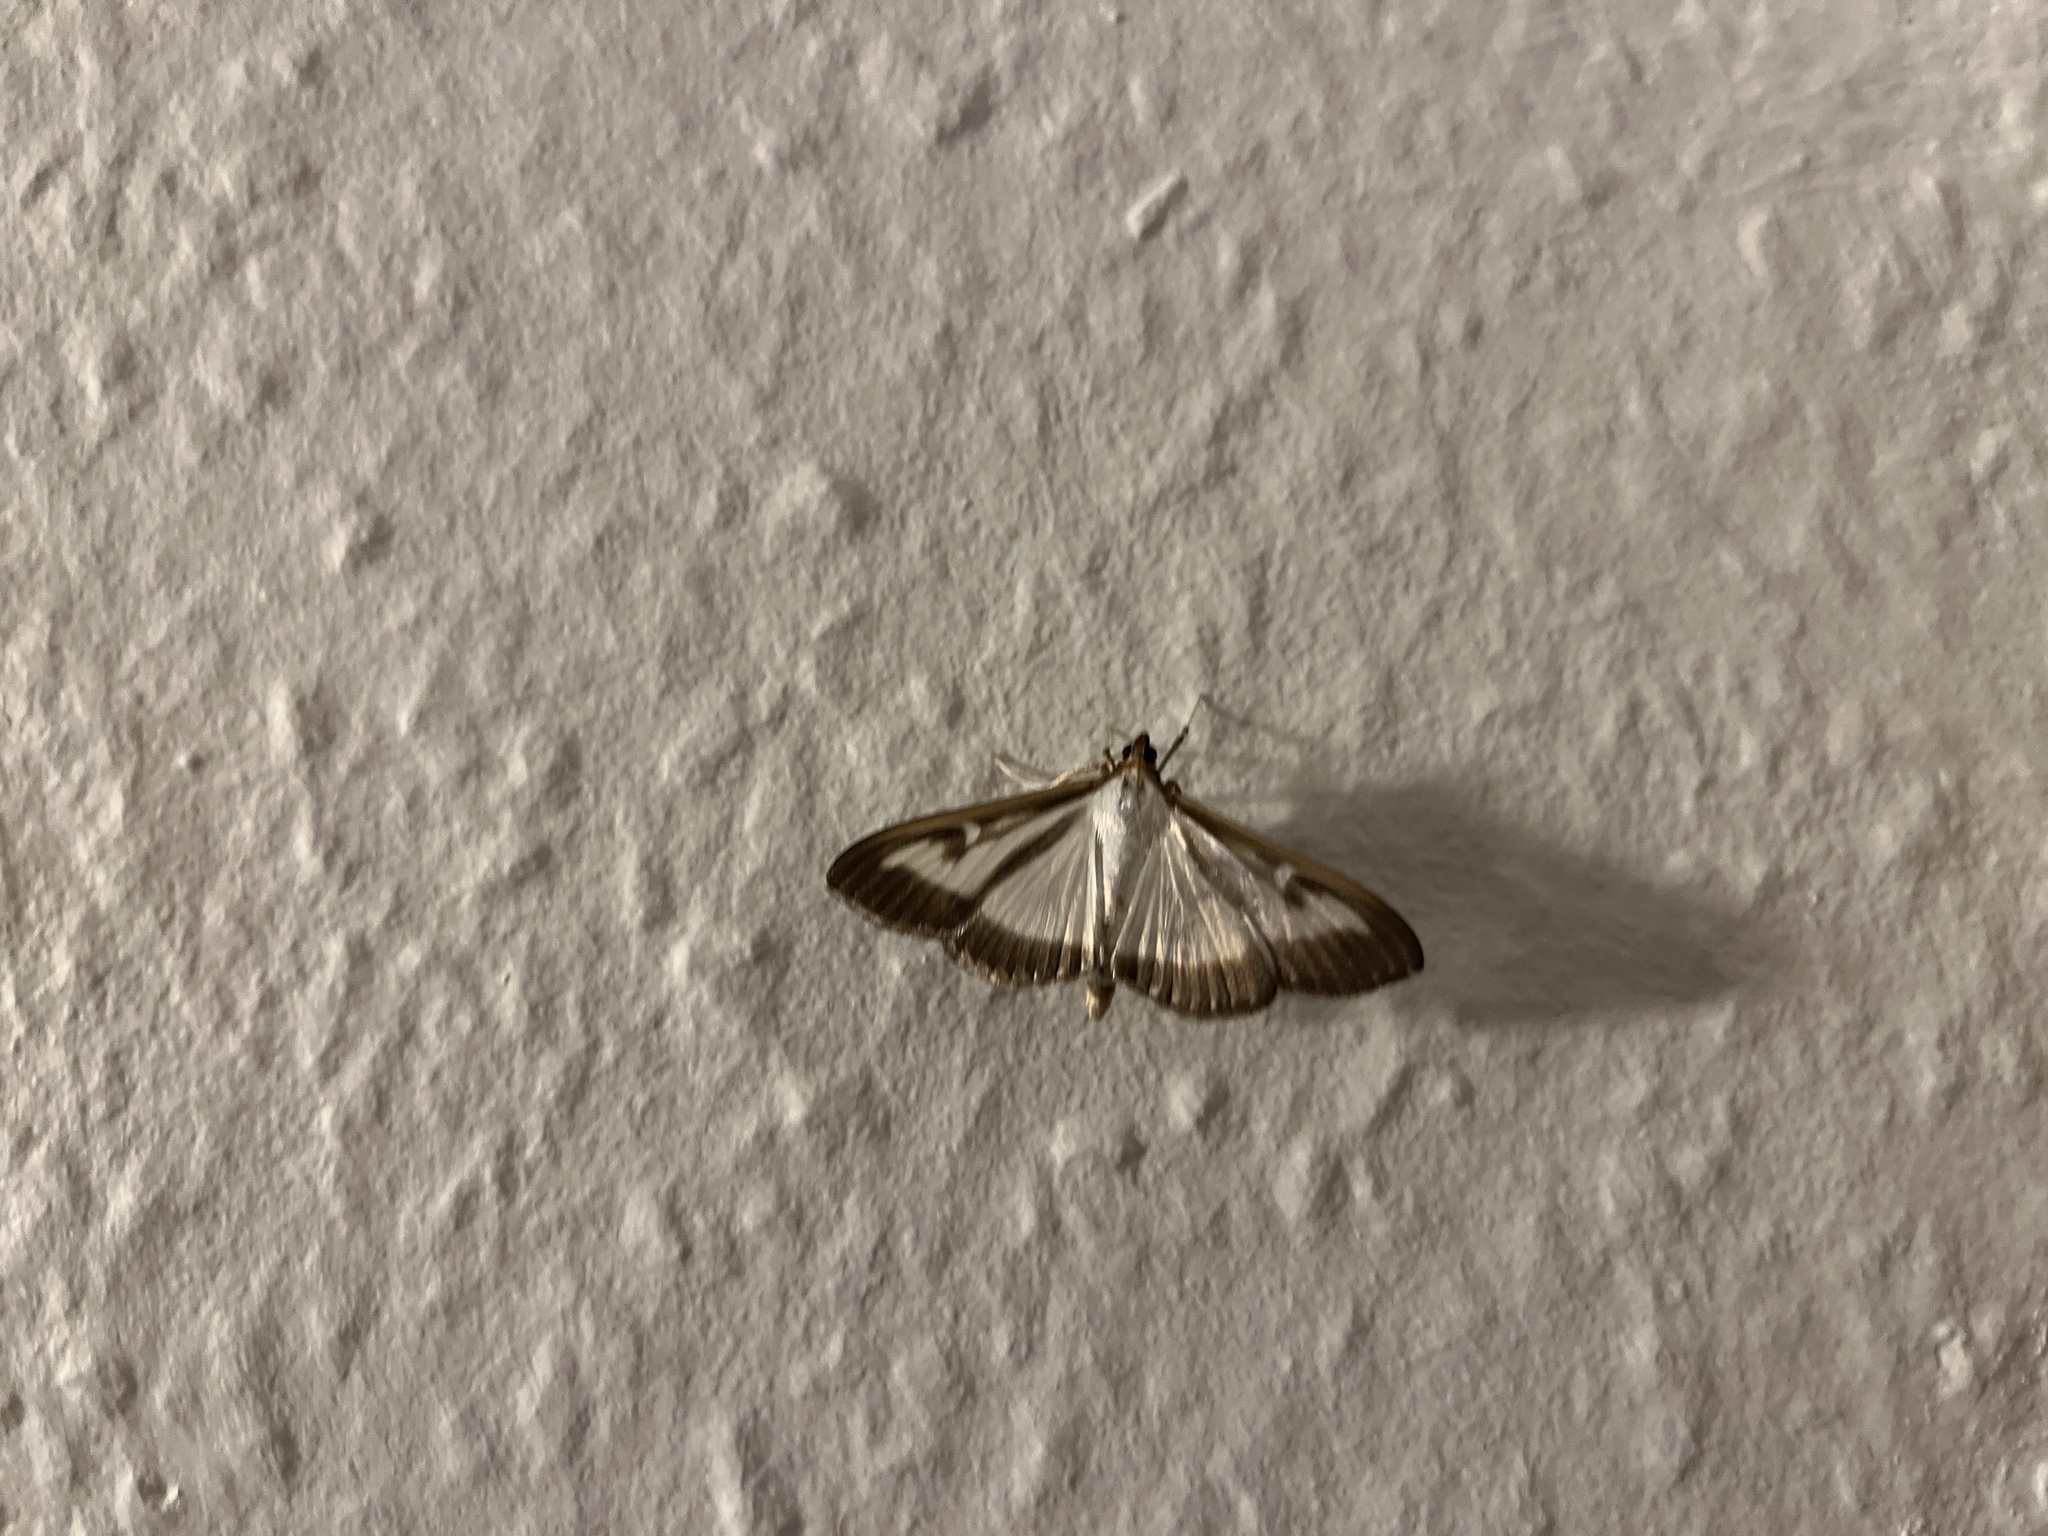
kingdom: Animalia
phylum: Arthropoda
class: Insecta
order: Lepidoptera
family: Crambidae
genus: Cydalima
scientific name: Cydalima perspectalis
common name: Box tree moth
